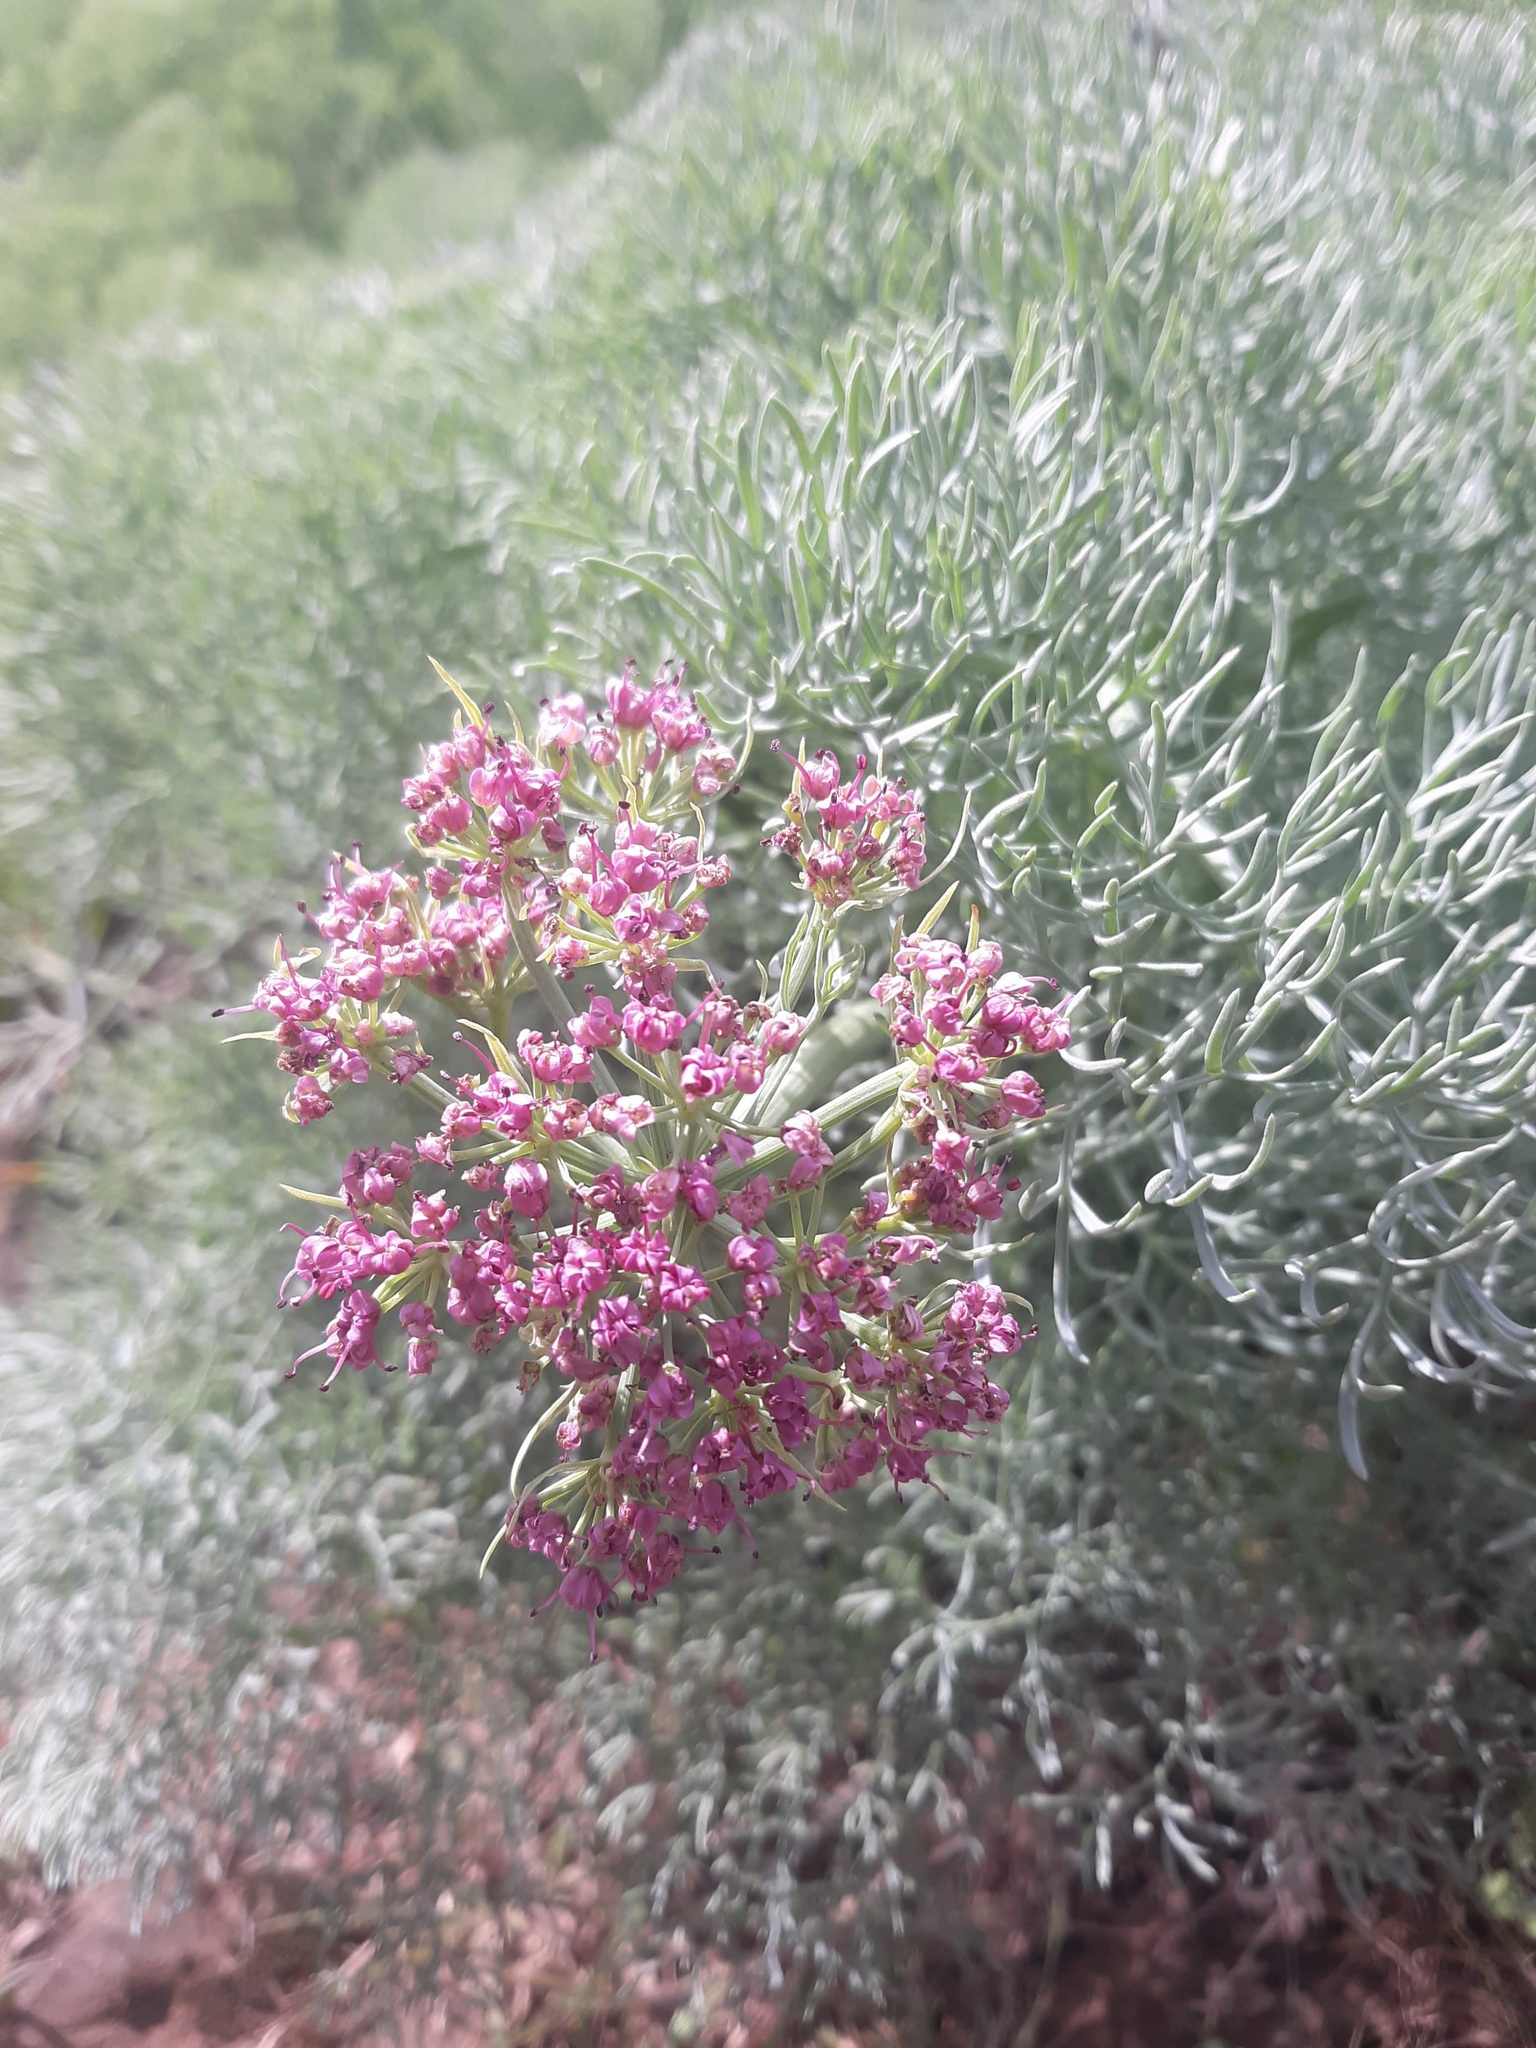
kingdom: Plantae
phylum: Tracheophyta
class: Magnoliopsida
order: Apiales
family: Apiaceae
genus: Lomatium
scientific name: Lomatium columbianum
